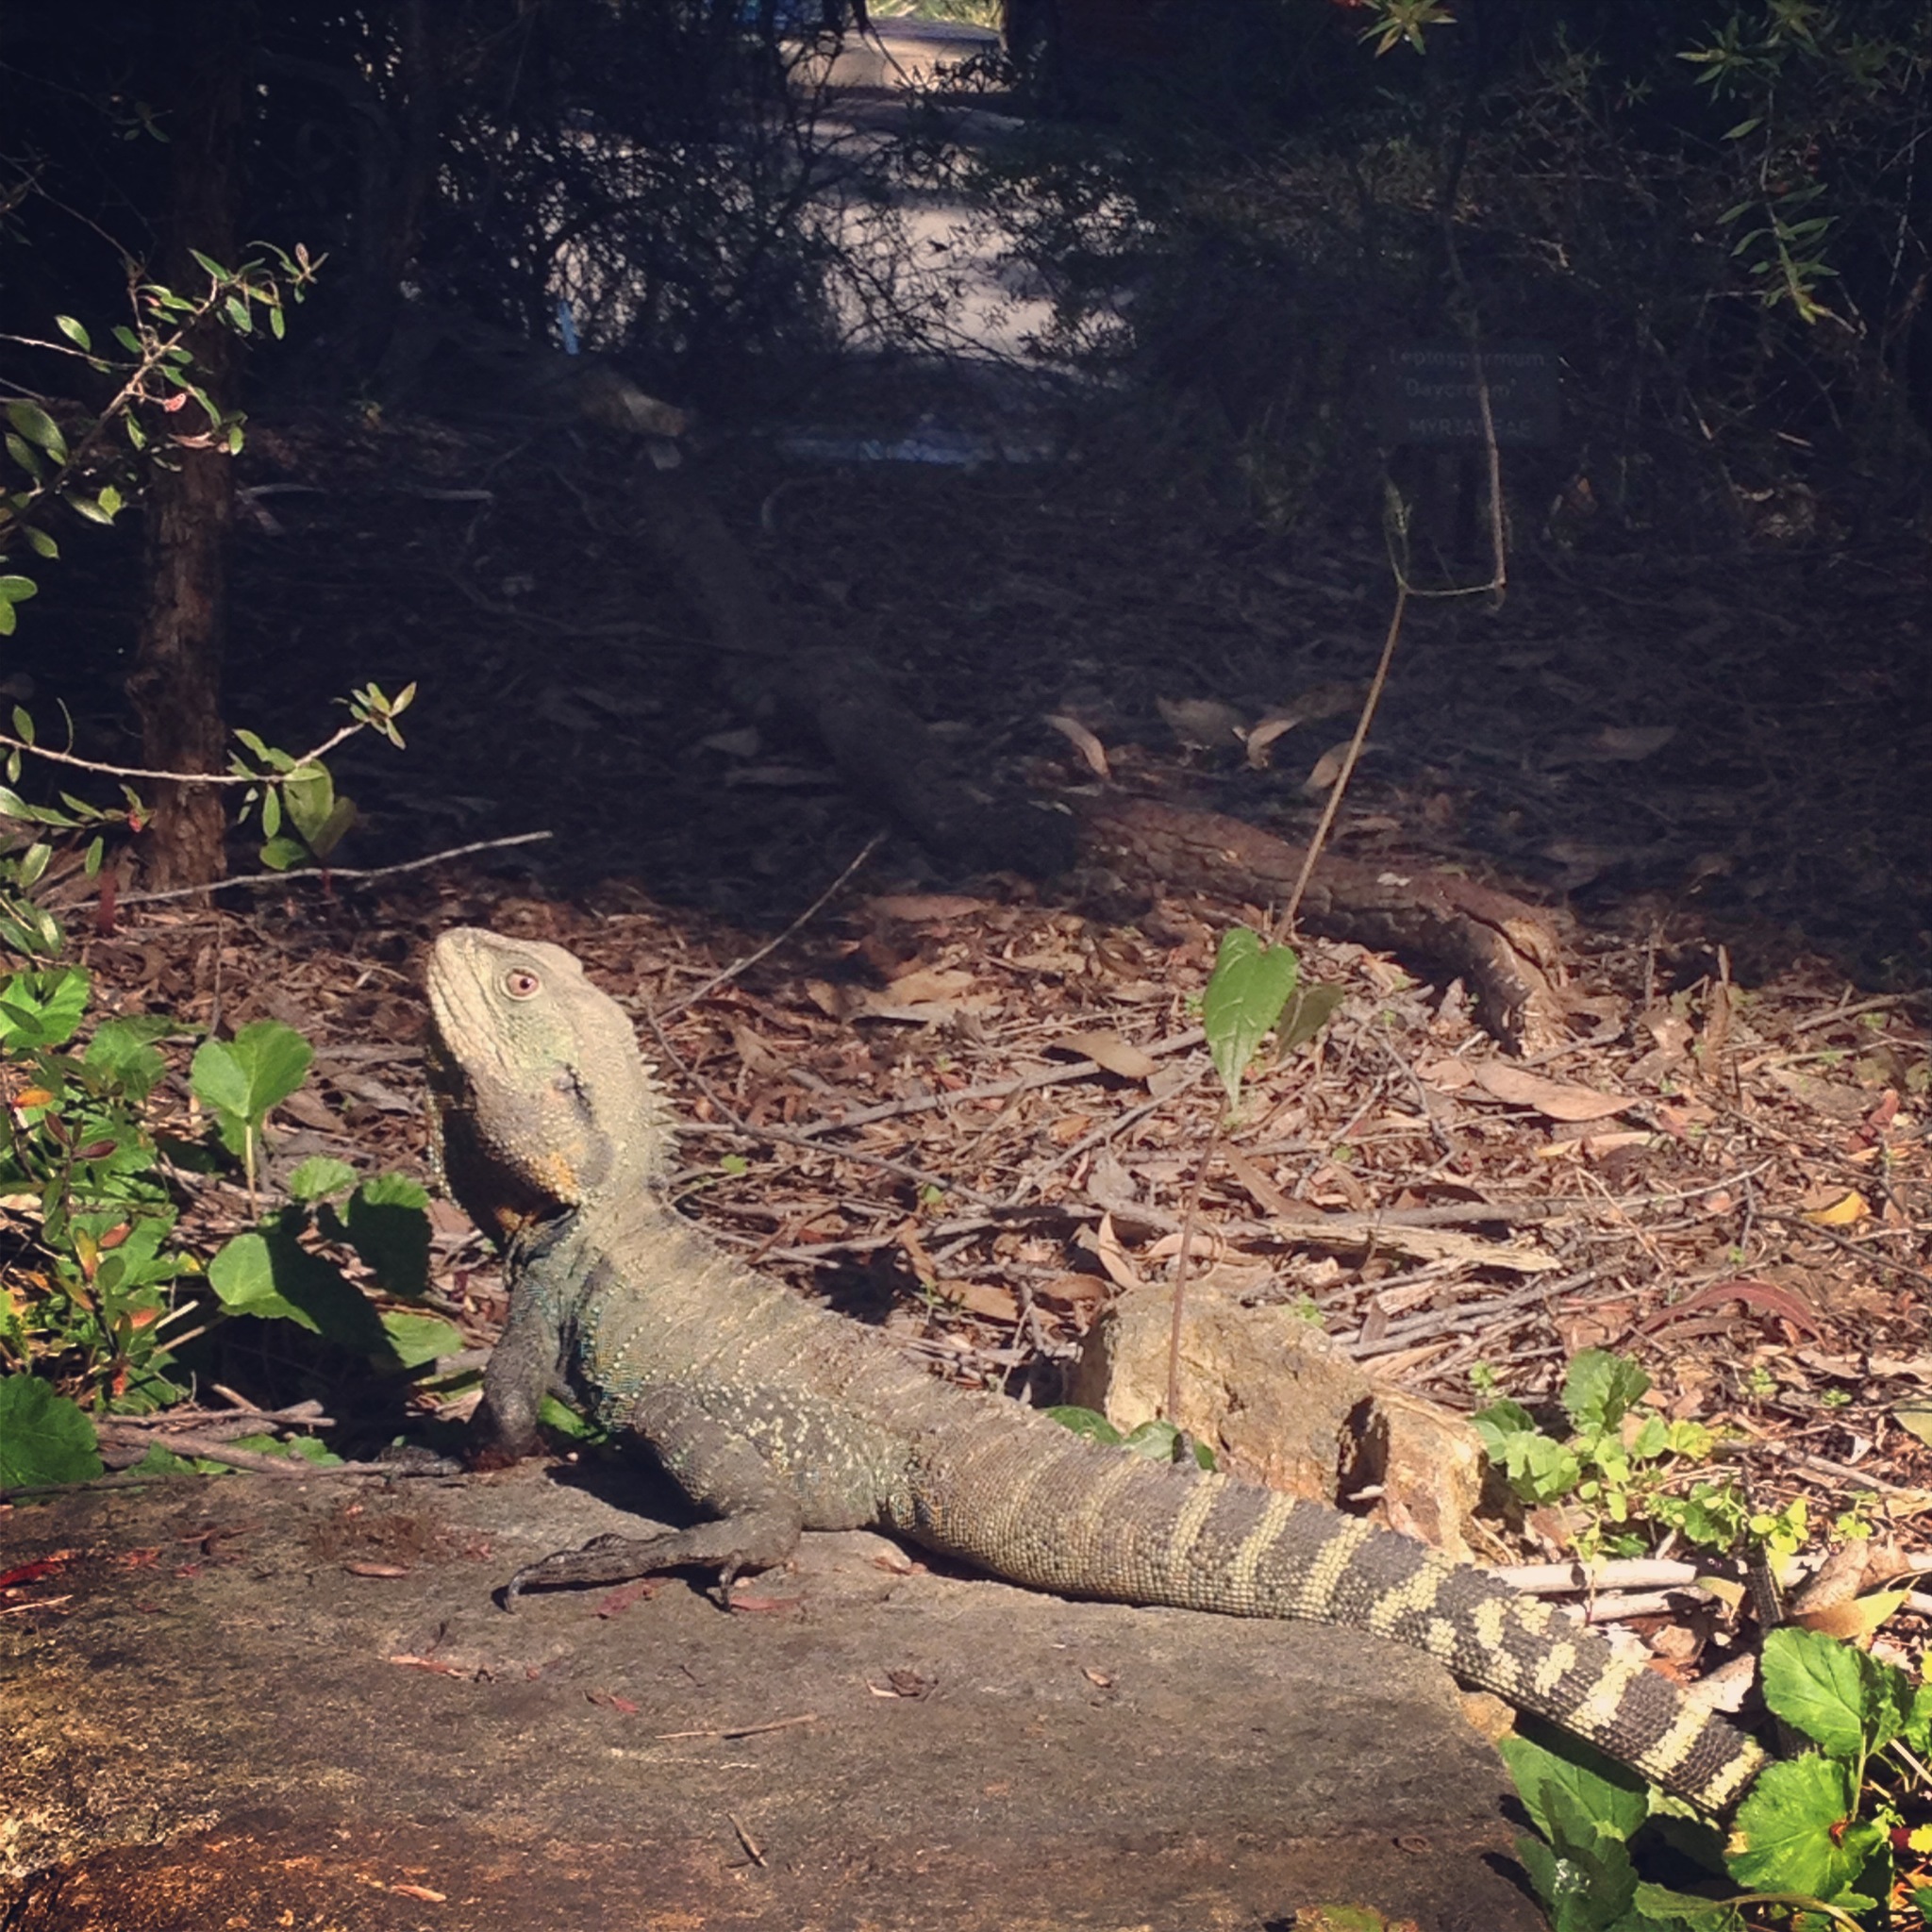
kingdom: Animalia
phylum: Chordata
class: Squamata
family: Agamidae
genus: Intellagama
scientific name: Intellagama lesueurii
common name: Eastern water dragon
